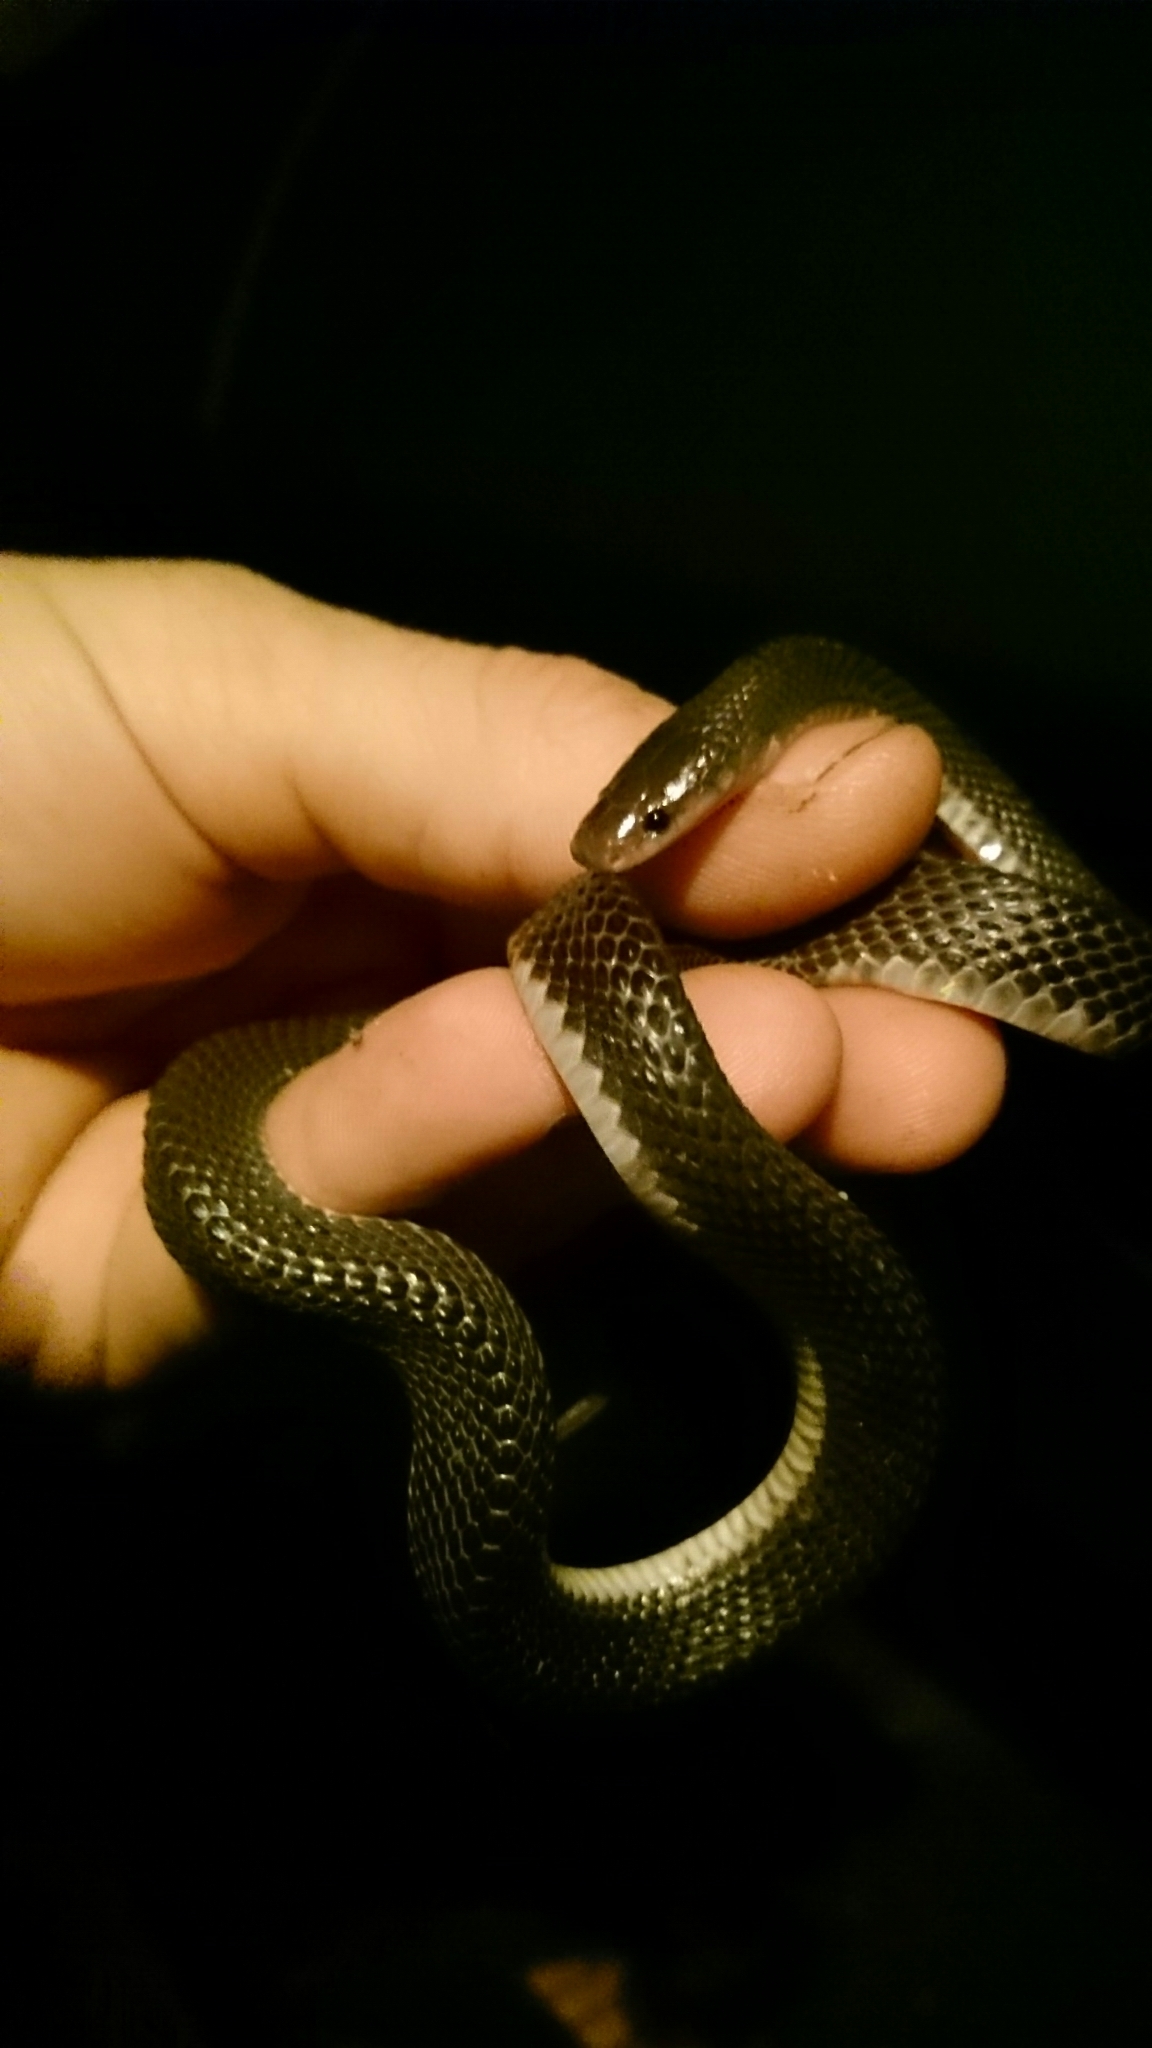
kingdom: Animalia
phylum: Chordata
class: Squamata
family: Lamprophiidae
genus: Gracililima
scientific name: Gracililima nyassae
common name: Black file snake
